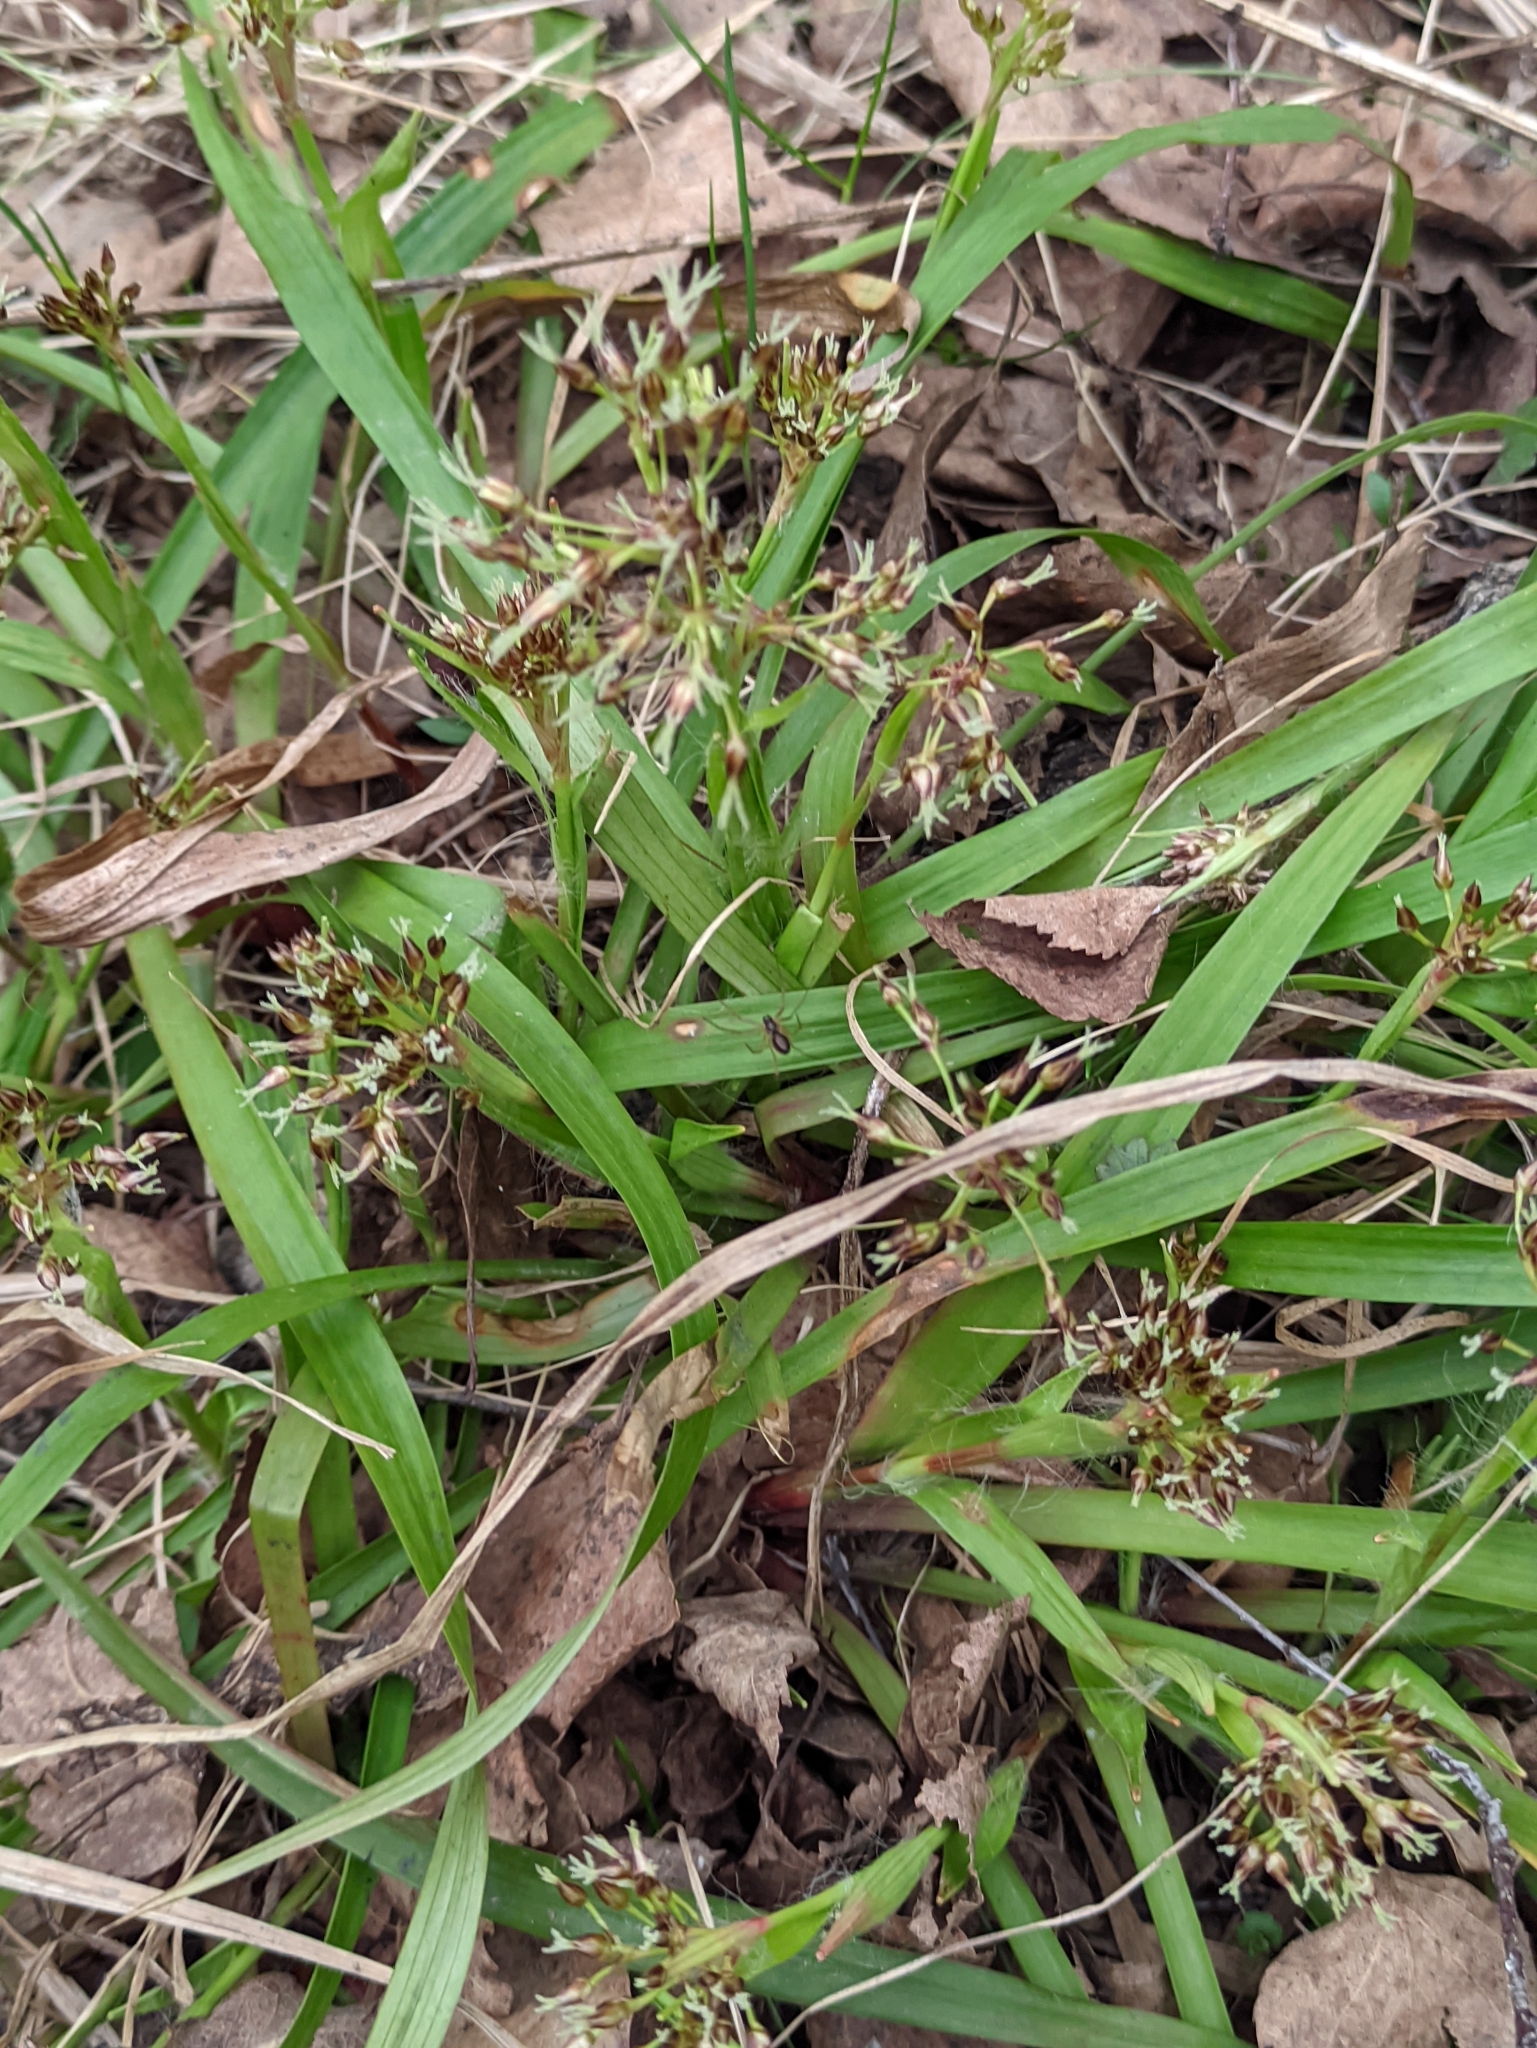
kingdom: Plantae
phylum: Tracheophyta
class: Liliopsida
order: Poales
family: Juncaceae
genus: Luzula
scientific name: Luzula pilosa
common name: Hairy wood-rush
